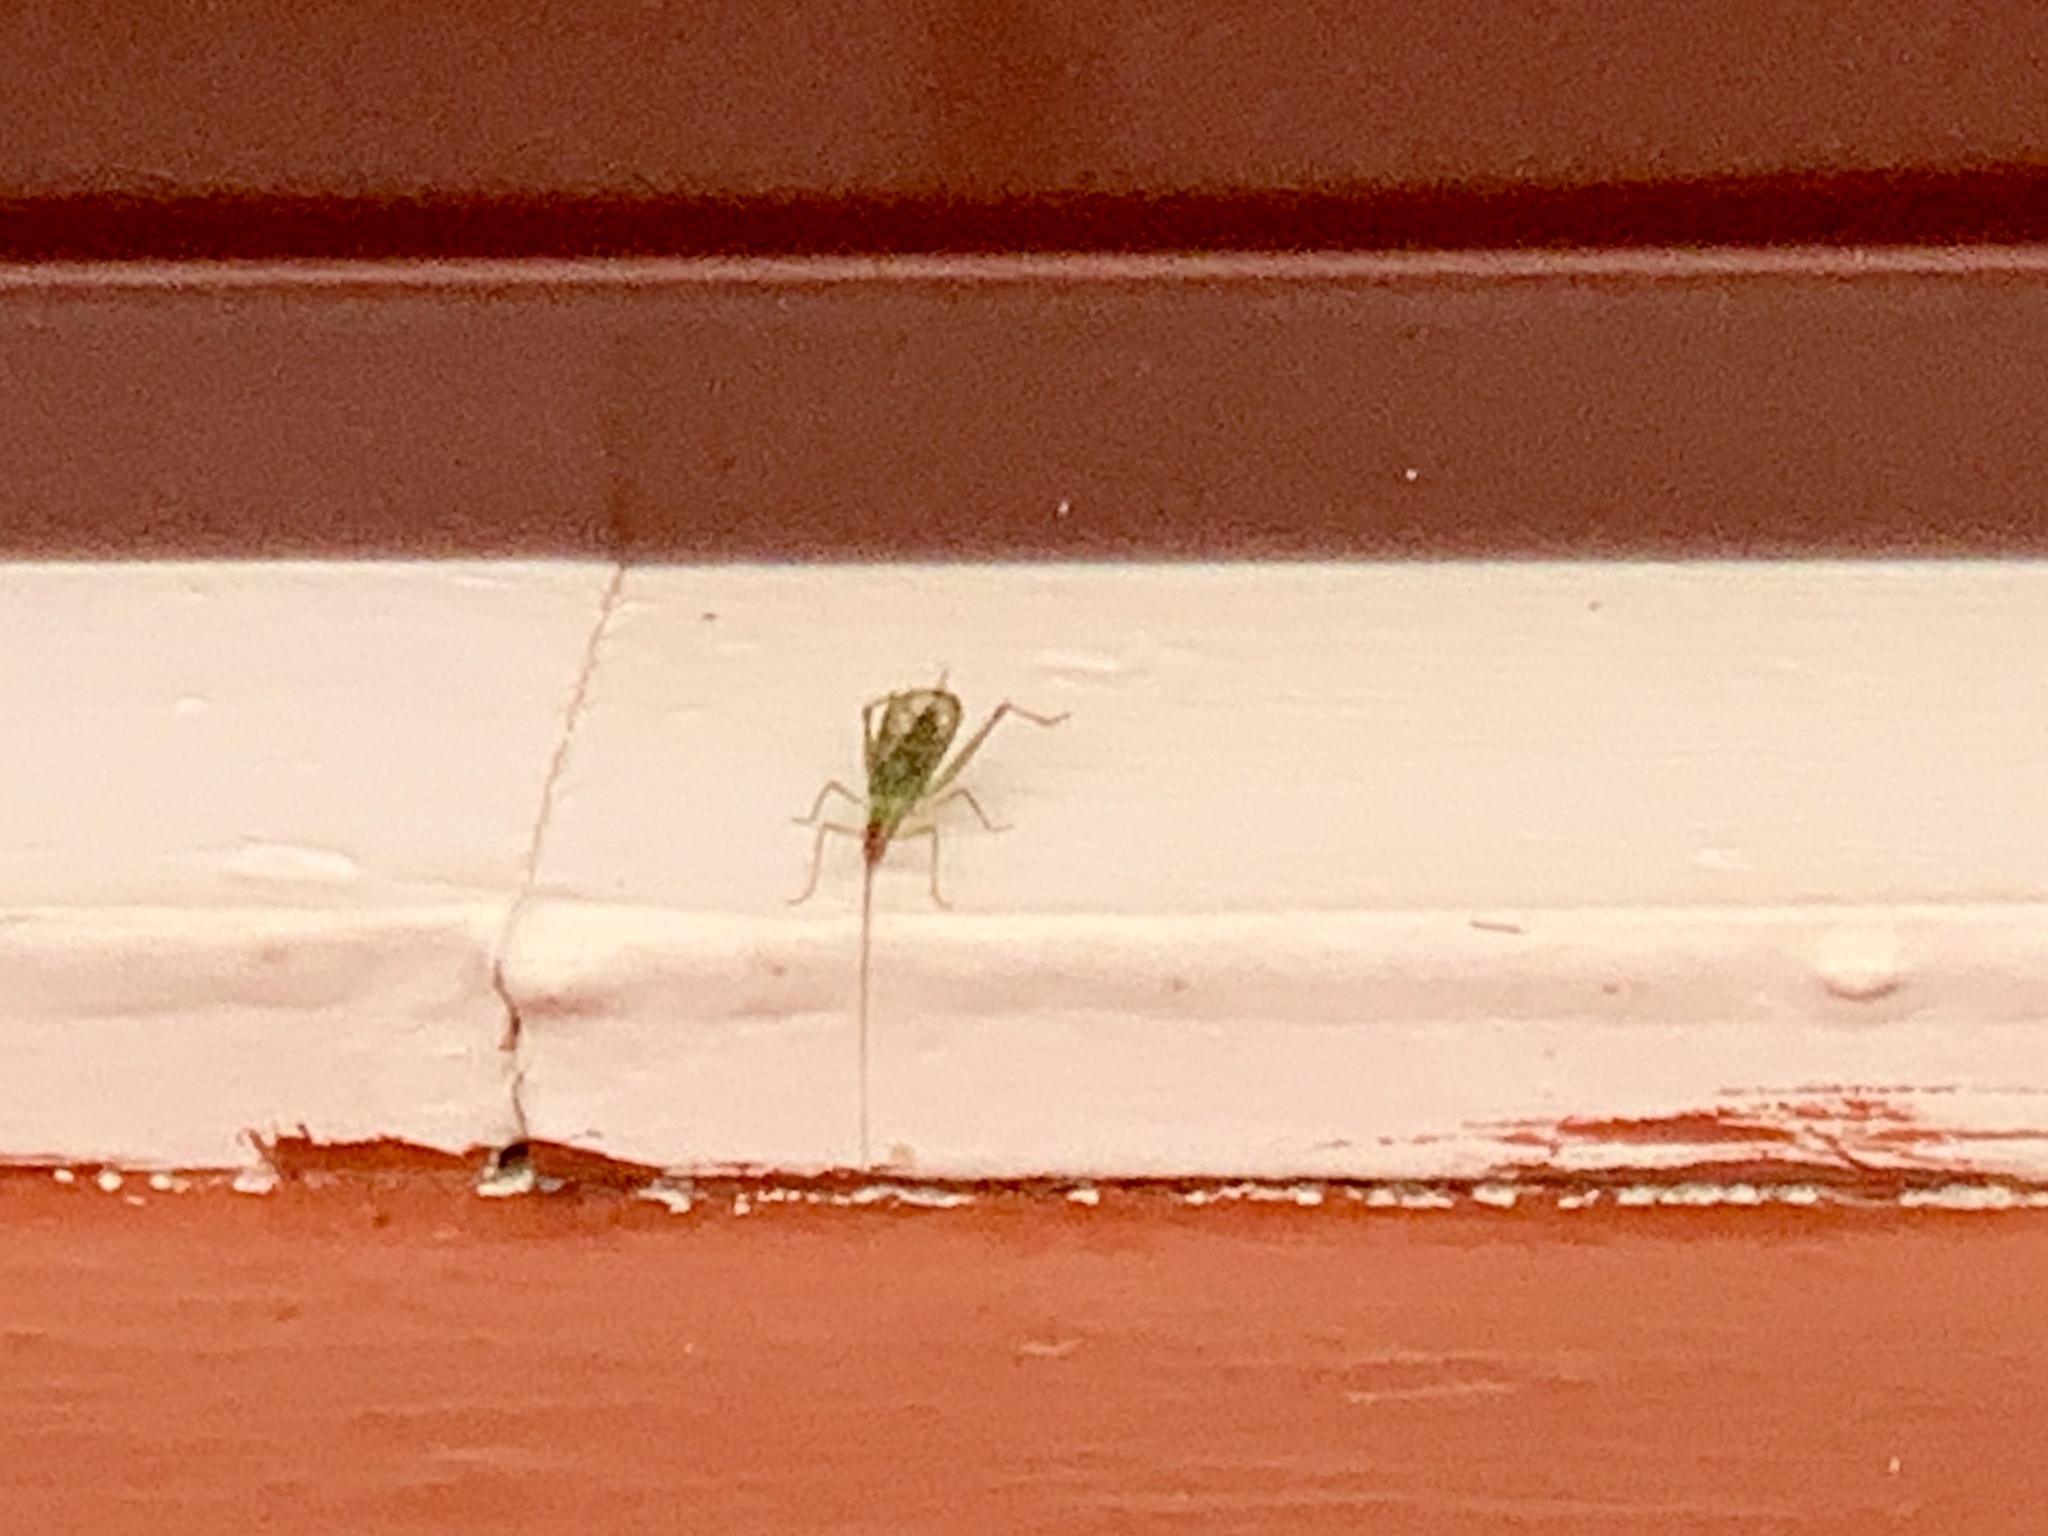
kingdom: Animalia
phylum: Arthropoda
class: Insecta
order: Orthoptera
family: Gryllidae
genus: Oecanthus
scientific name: Oecanthus californicus
